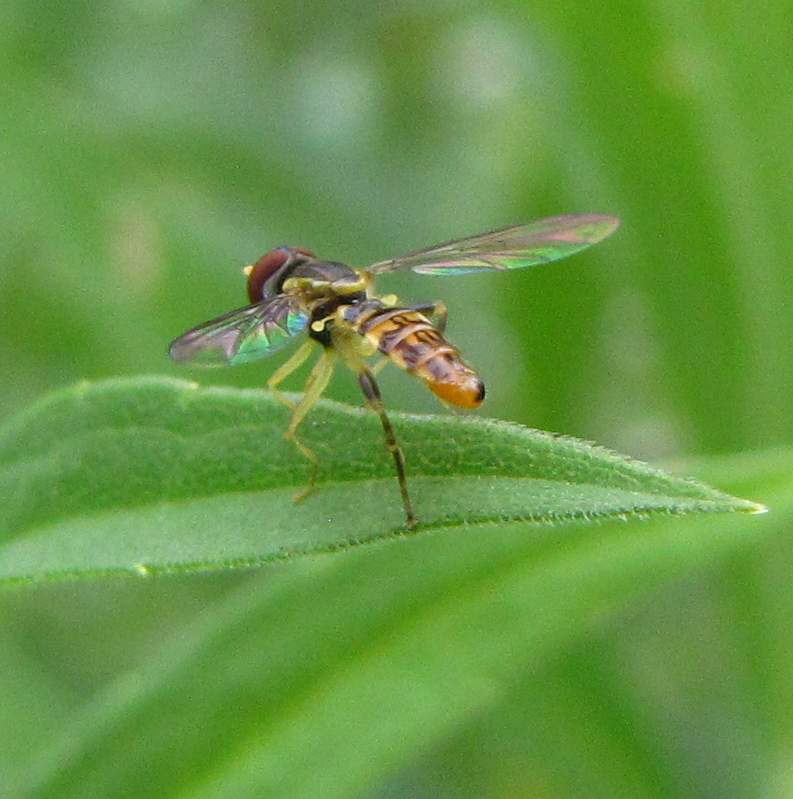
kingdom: Animalia
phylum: Arthropoda
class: Insecta
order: Diptera
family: Syrphidae
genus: Toxomerus
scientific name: Toxomerus geminatus
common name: Eastern calligrapher
